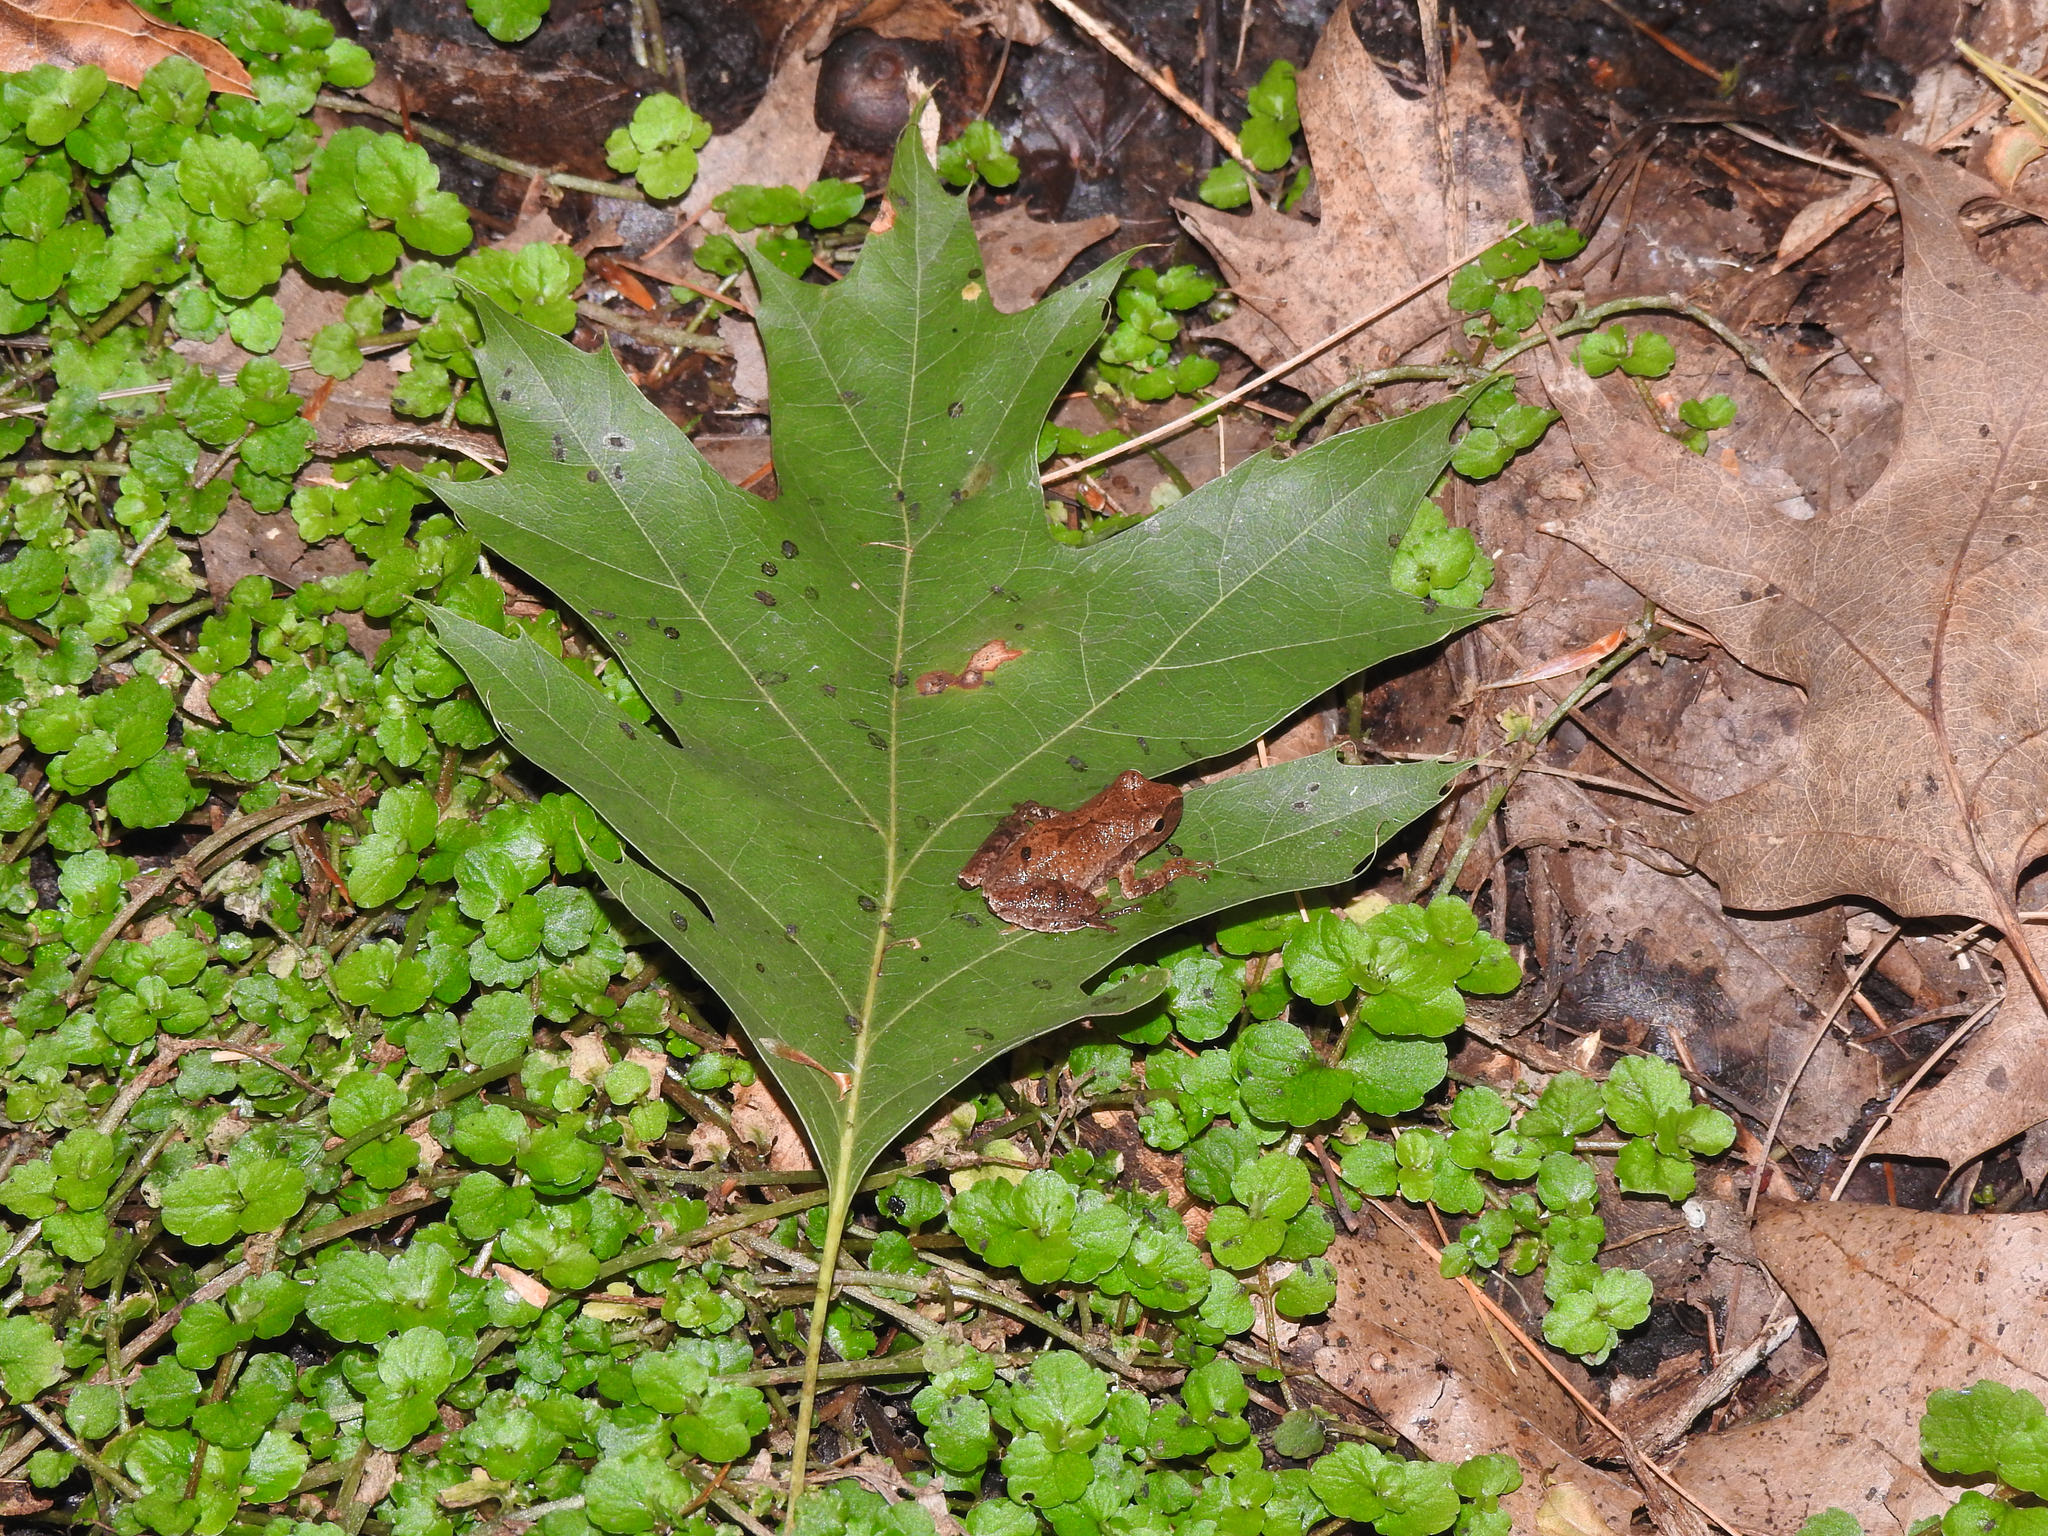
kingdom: Animalia
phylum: Chordata
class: Amphibia
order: Anura
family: Hylidae
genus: Pseudacris
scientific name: Pseudacris crucifer
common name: Spring peeper
